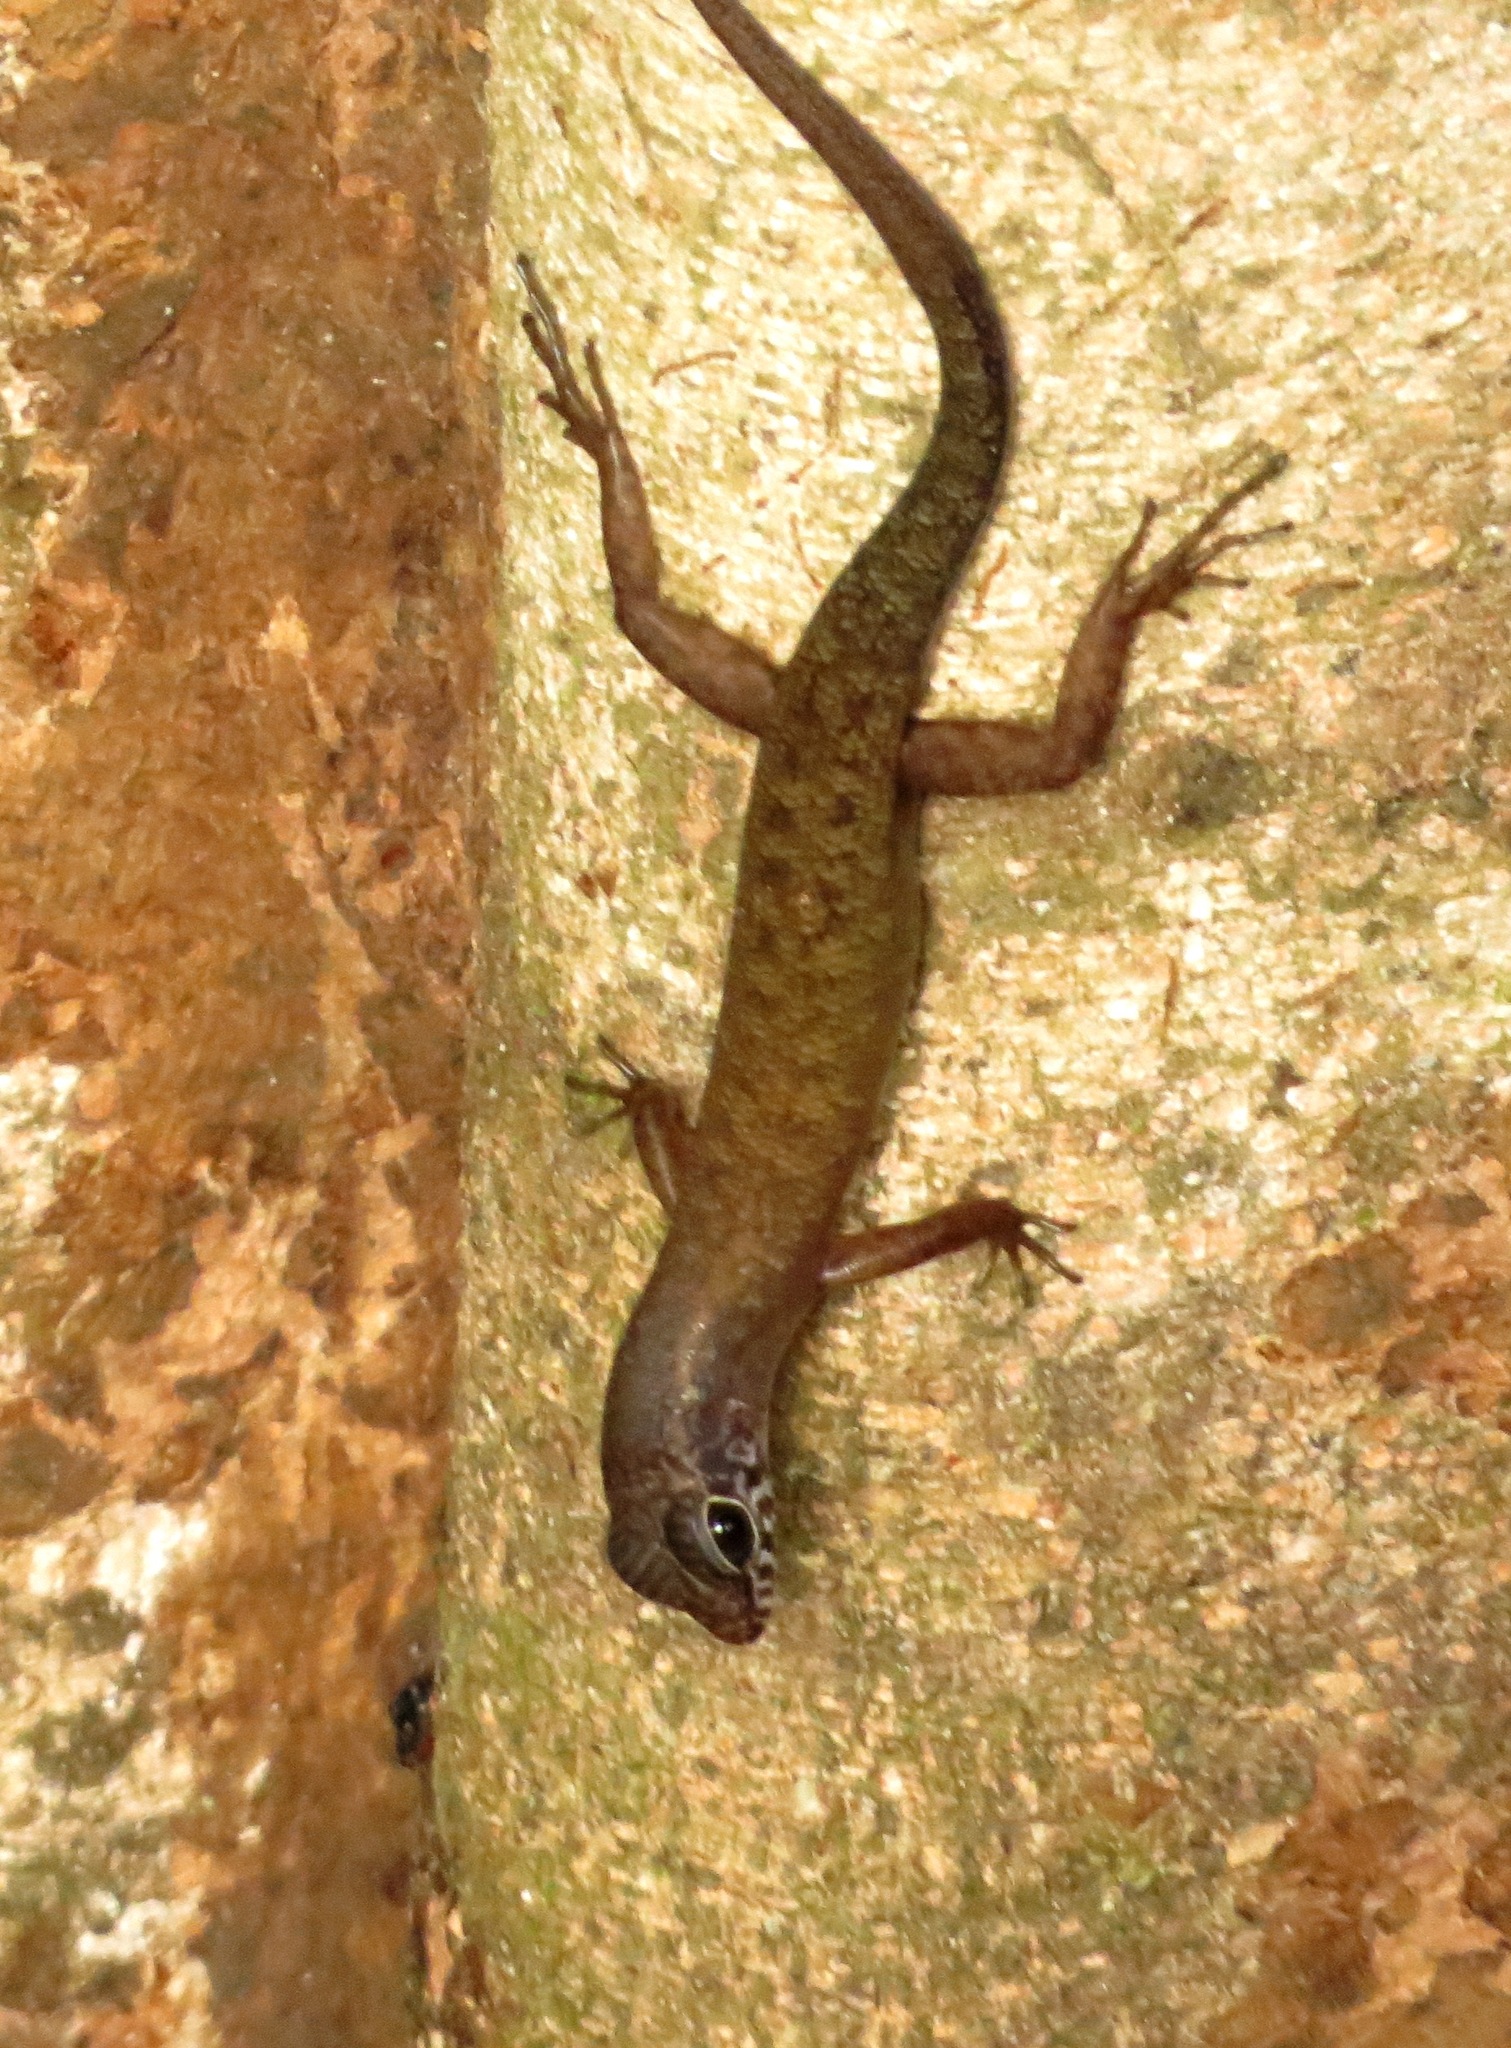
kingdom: Animalia
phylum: Chordata
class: Squamata
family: Scincidae
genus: Sphenomorphus
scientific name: Sphenomorphus sabanus
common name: Sabah slender skink
